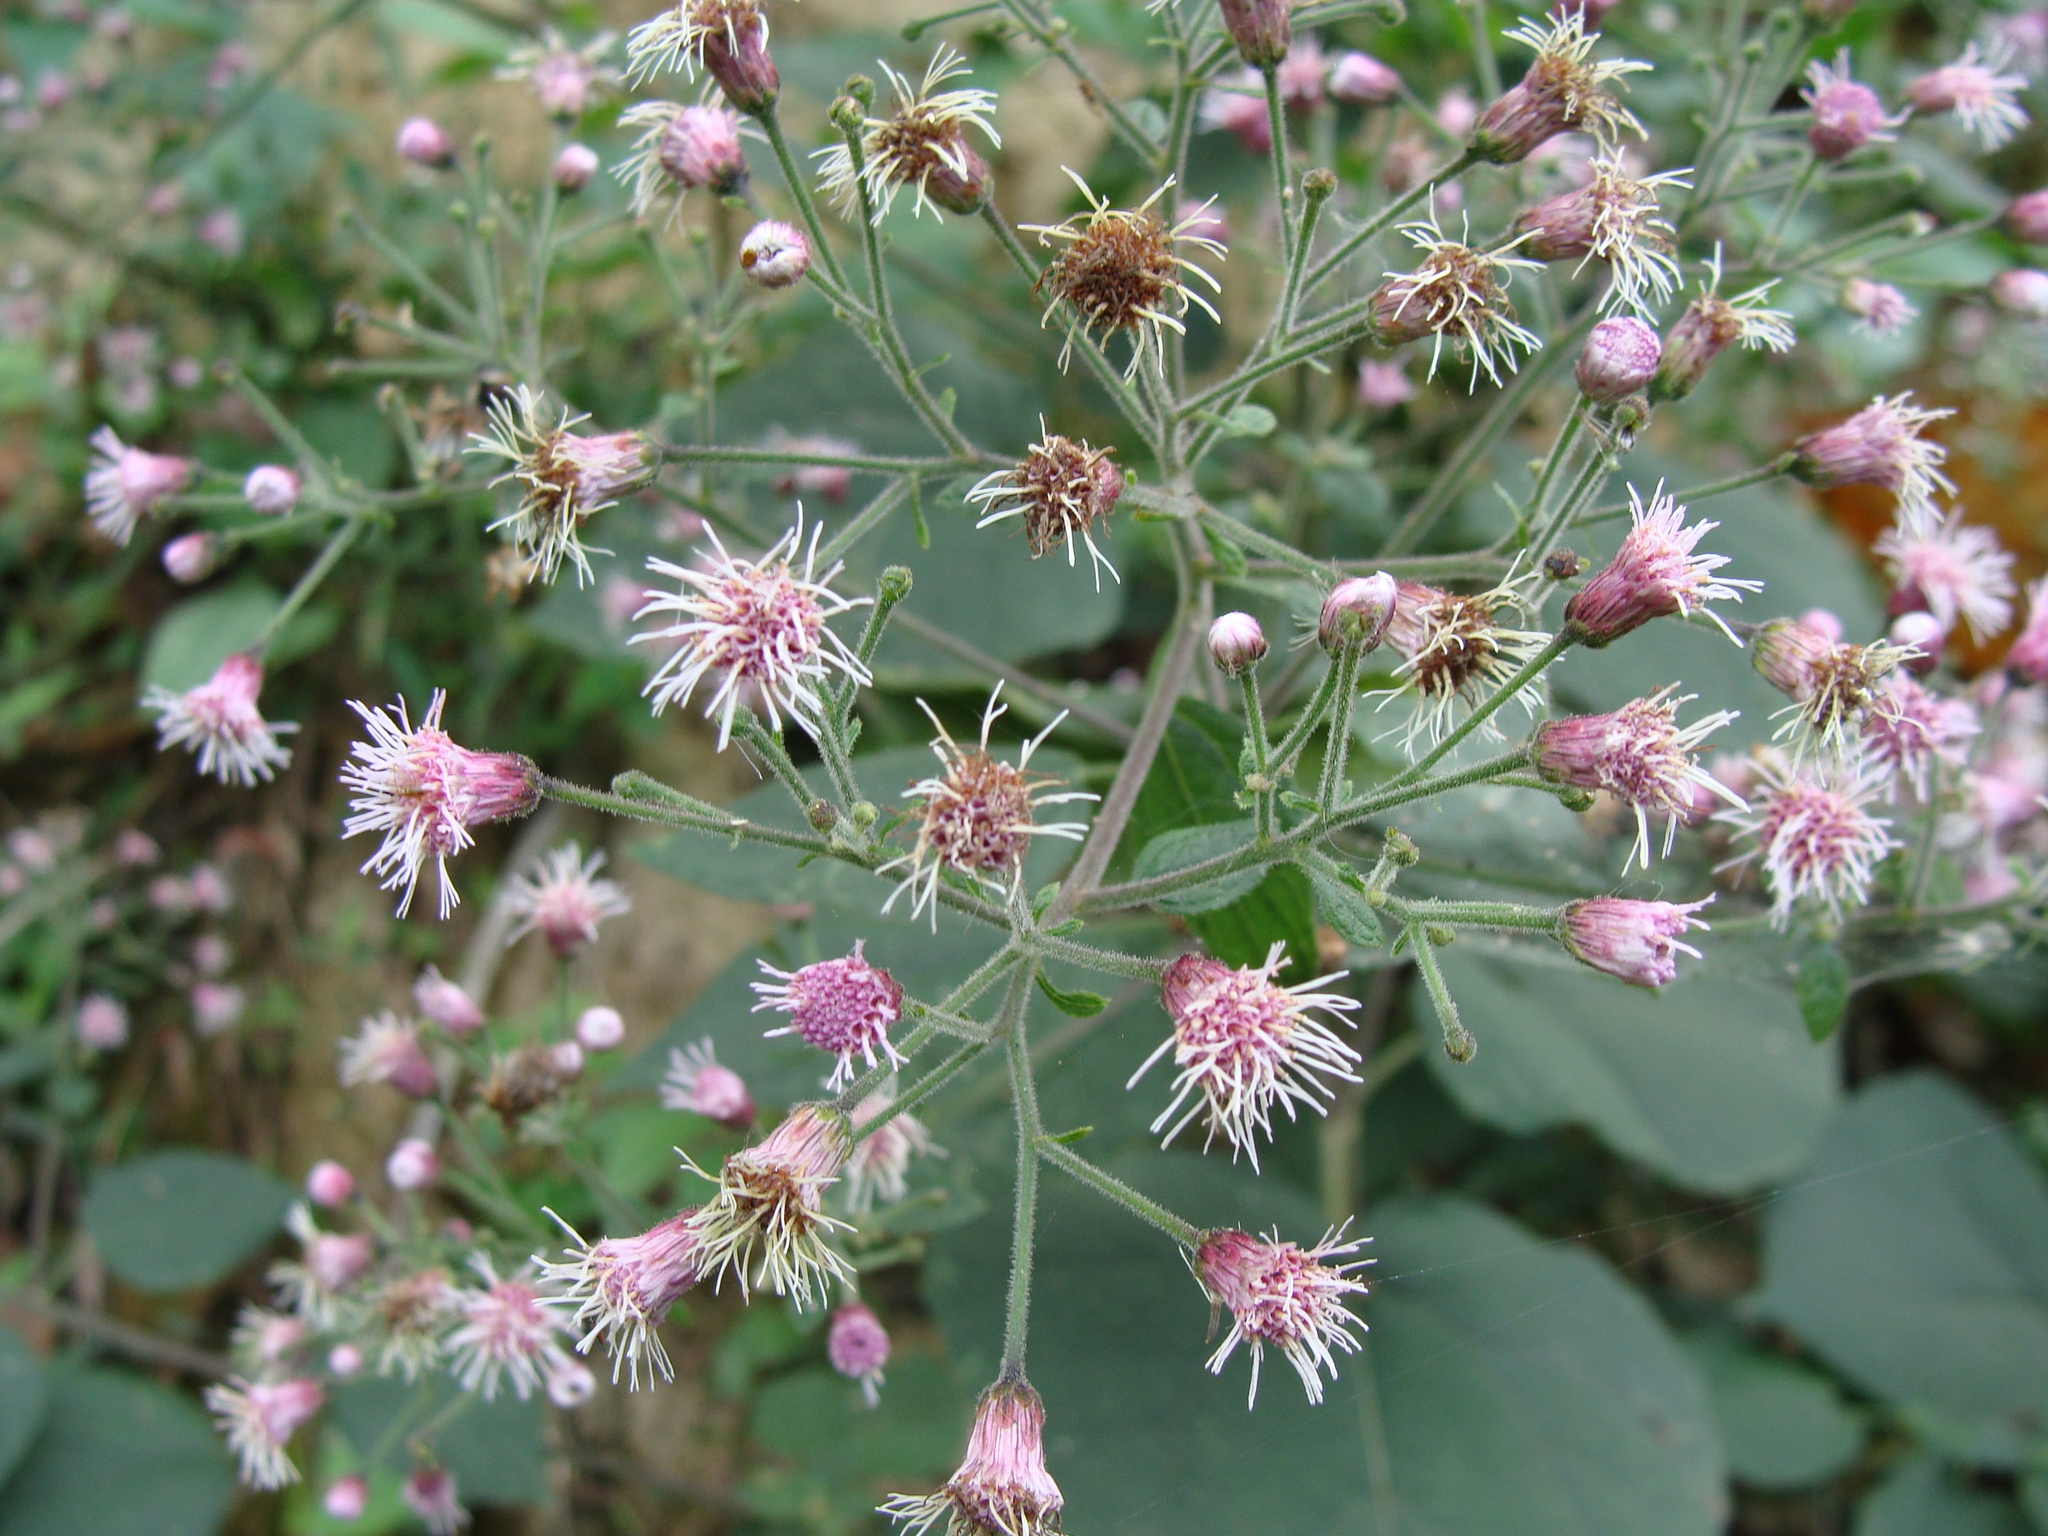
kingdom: Plantae
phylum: Tracheophyta
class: Magnoliopsida
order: Asterales
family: Asteraceae
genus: Peteravenia
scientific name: Peteravenia schultzii
